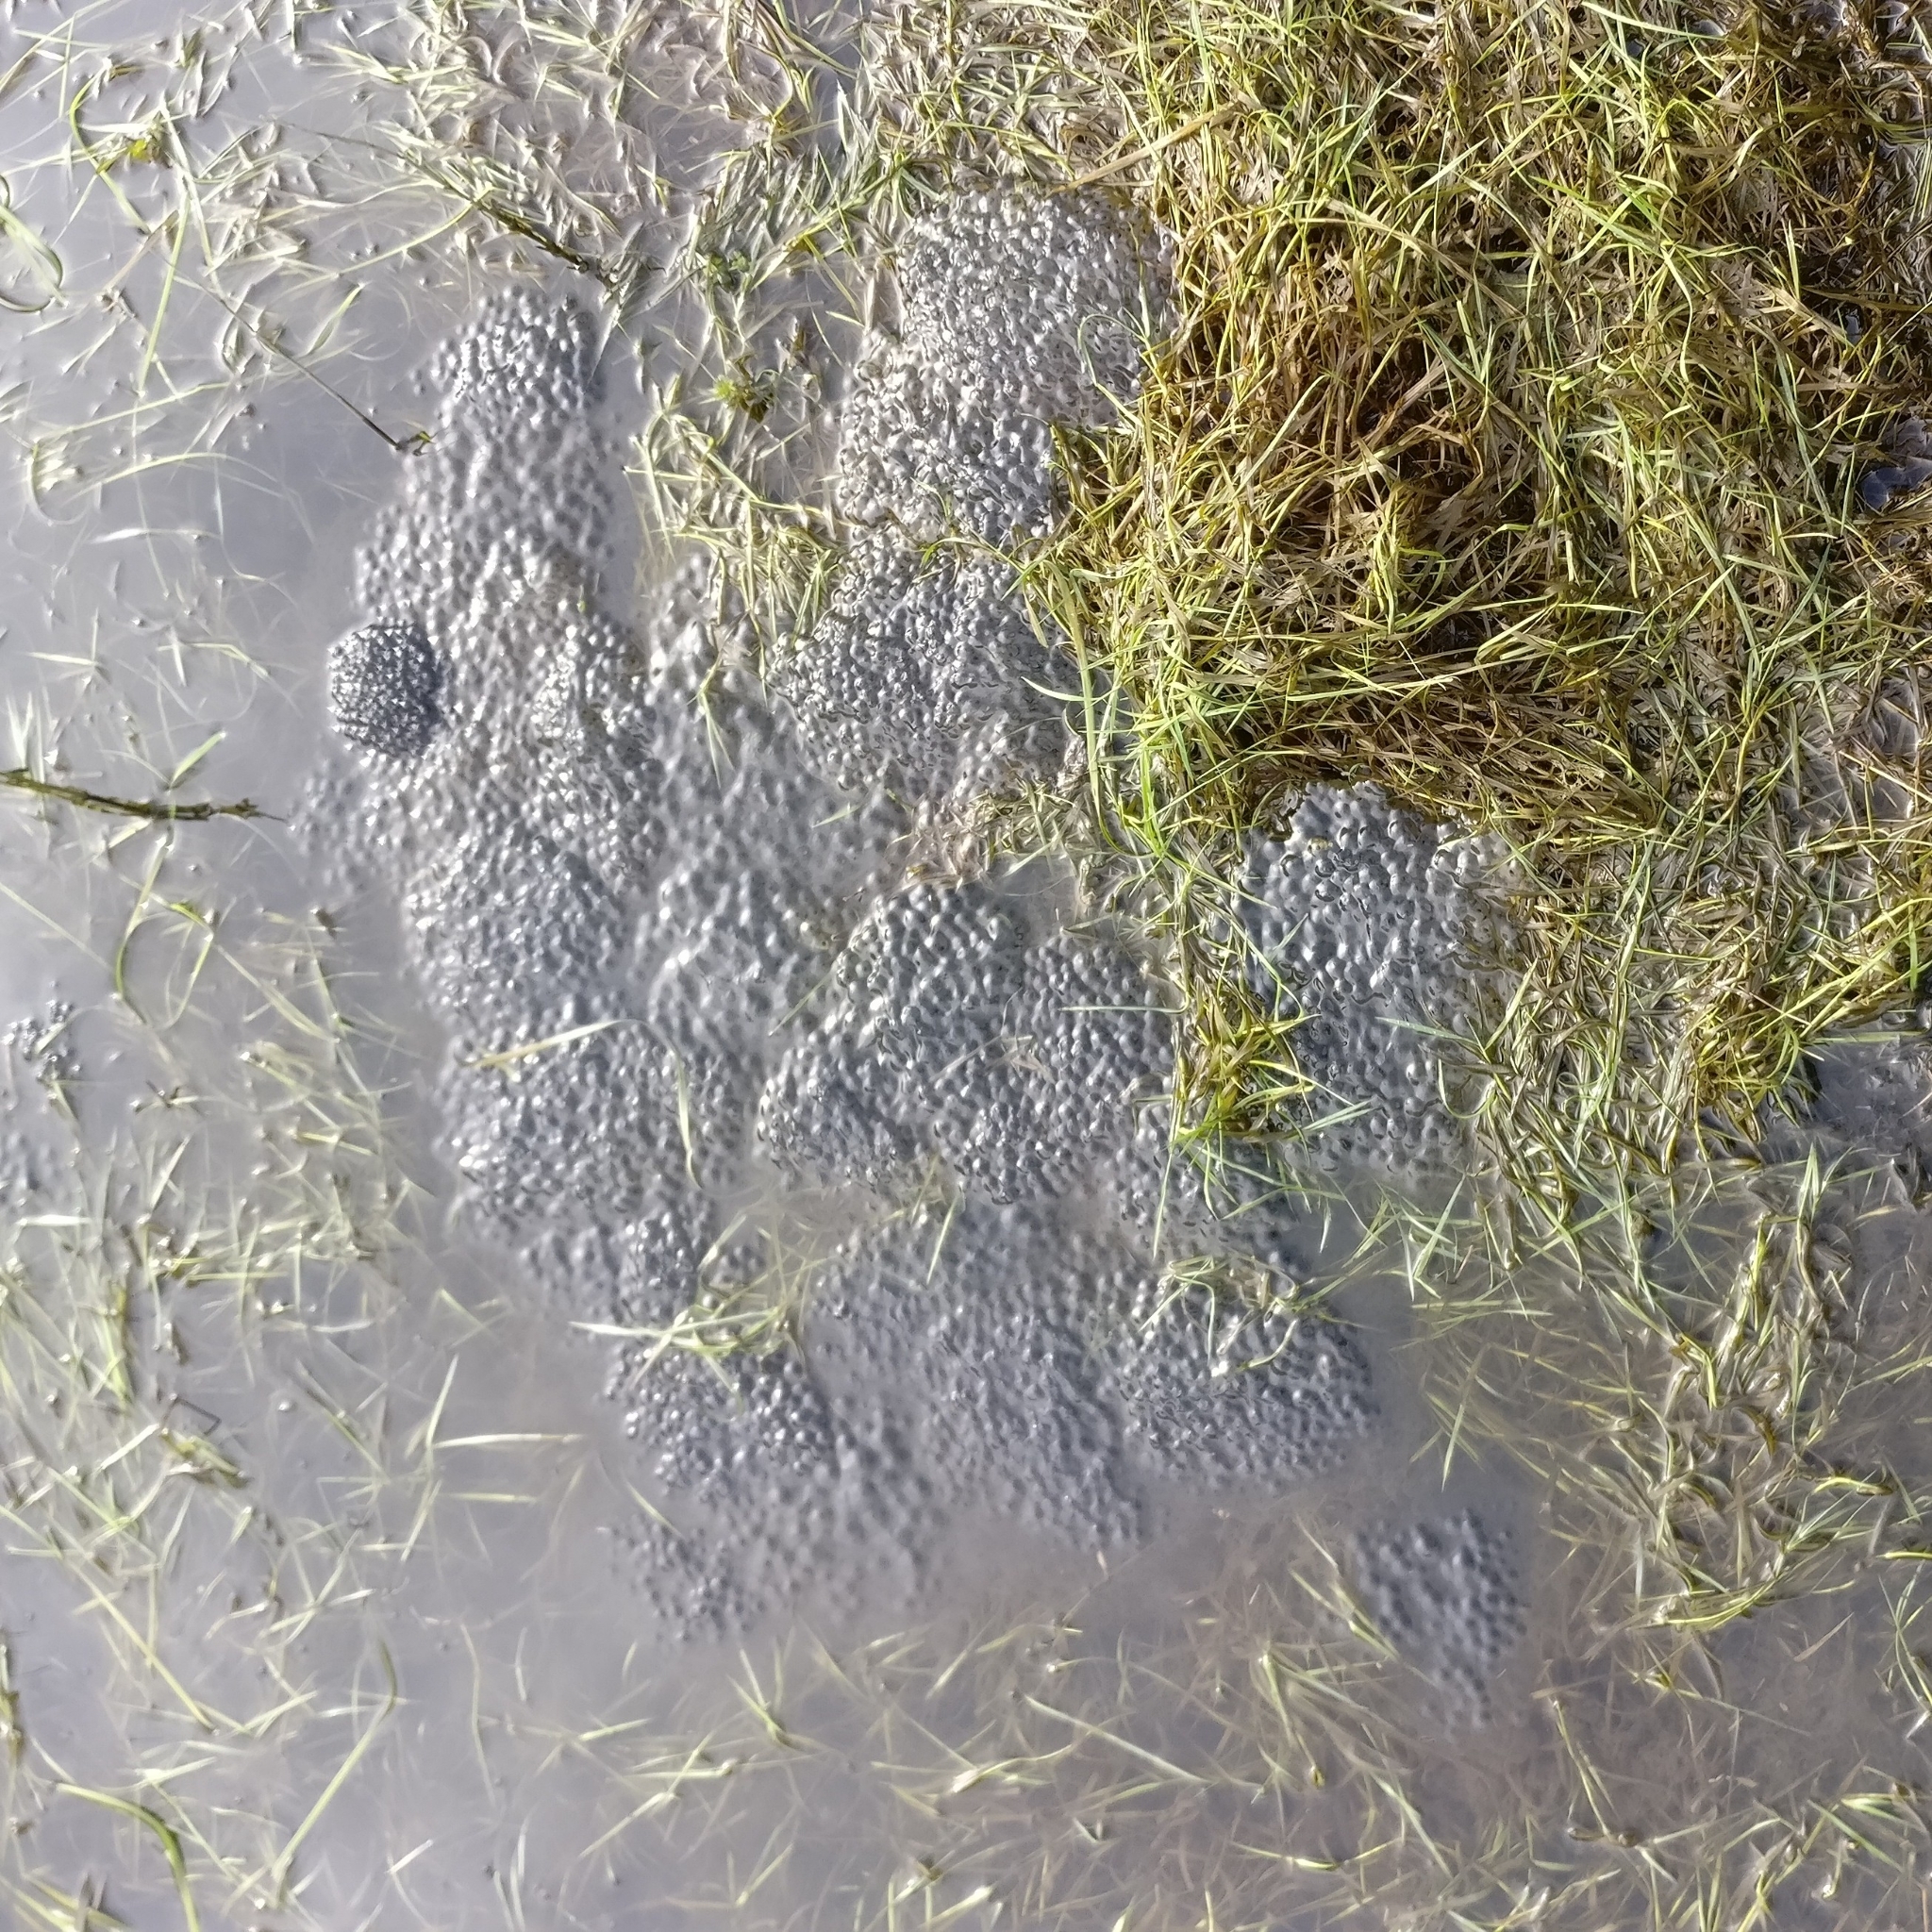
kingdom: Animalia
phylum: Chordata
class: Amphibia
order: Anura
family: Ranidae
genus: Rana
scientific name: Rana temporaria
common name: Common frog
